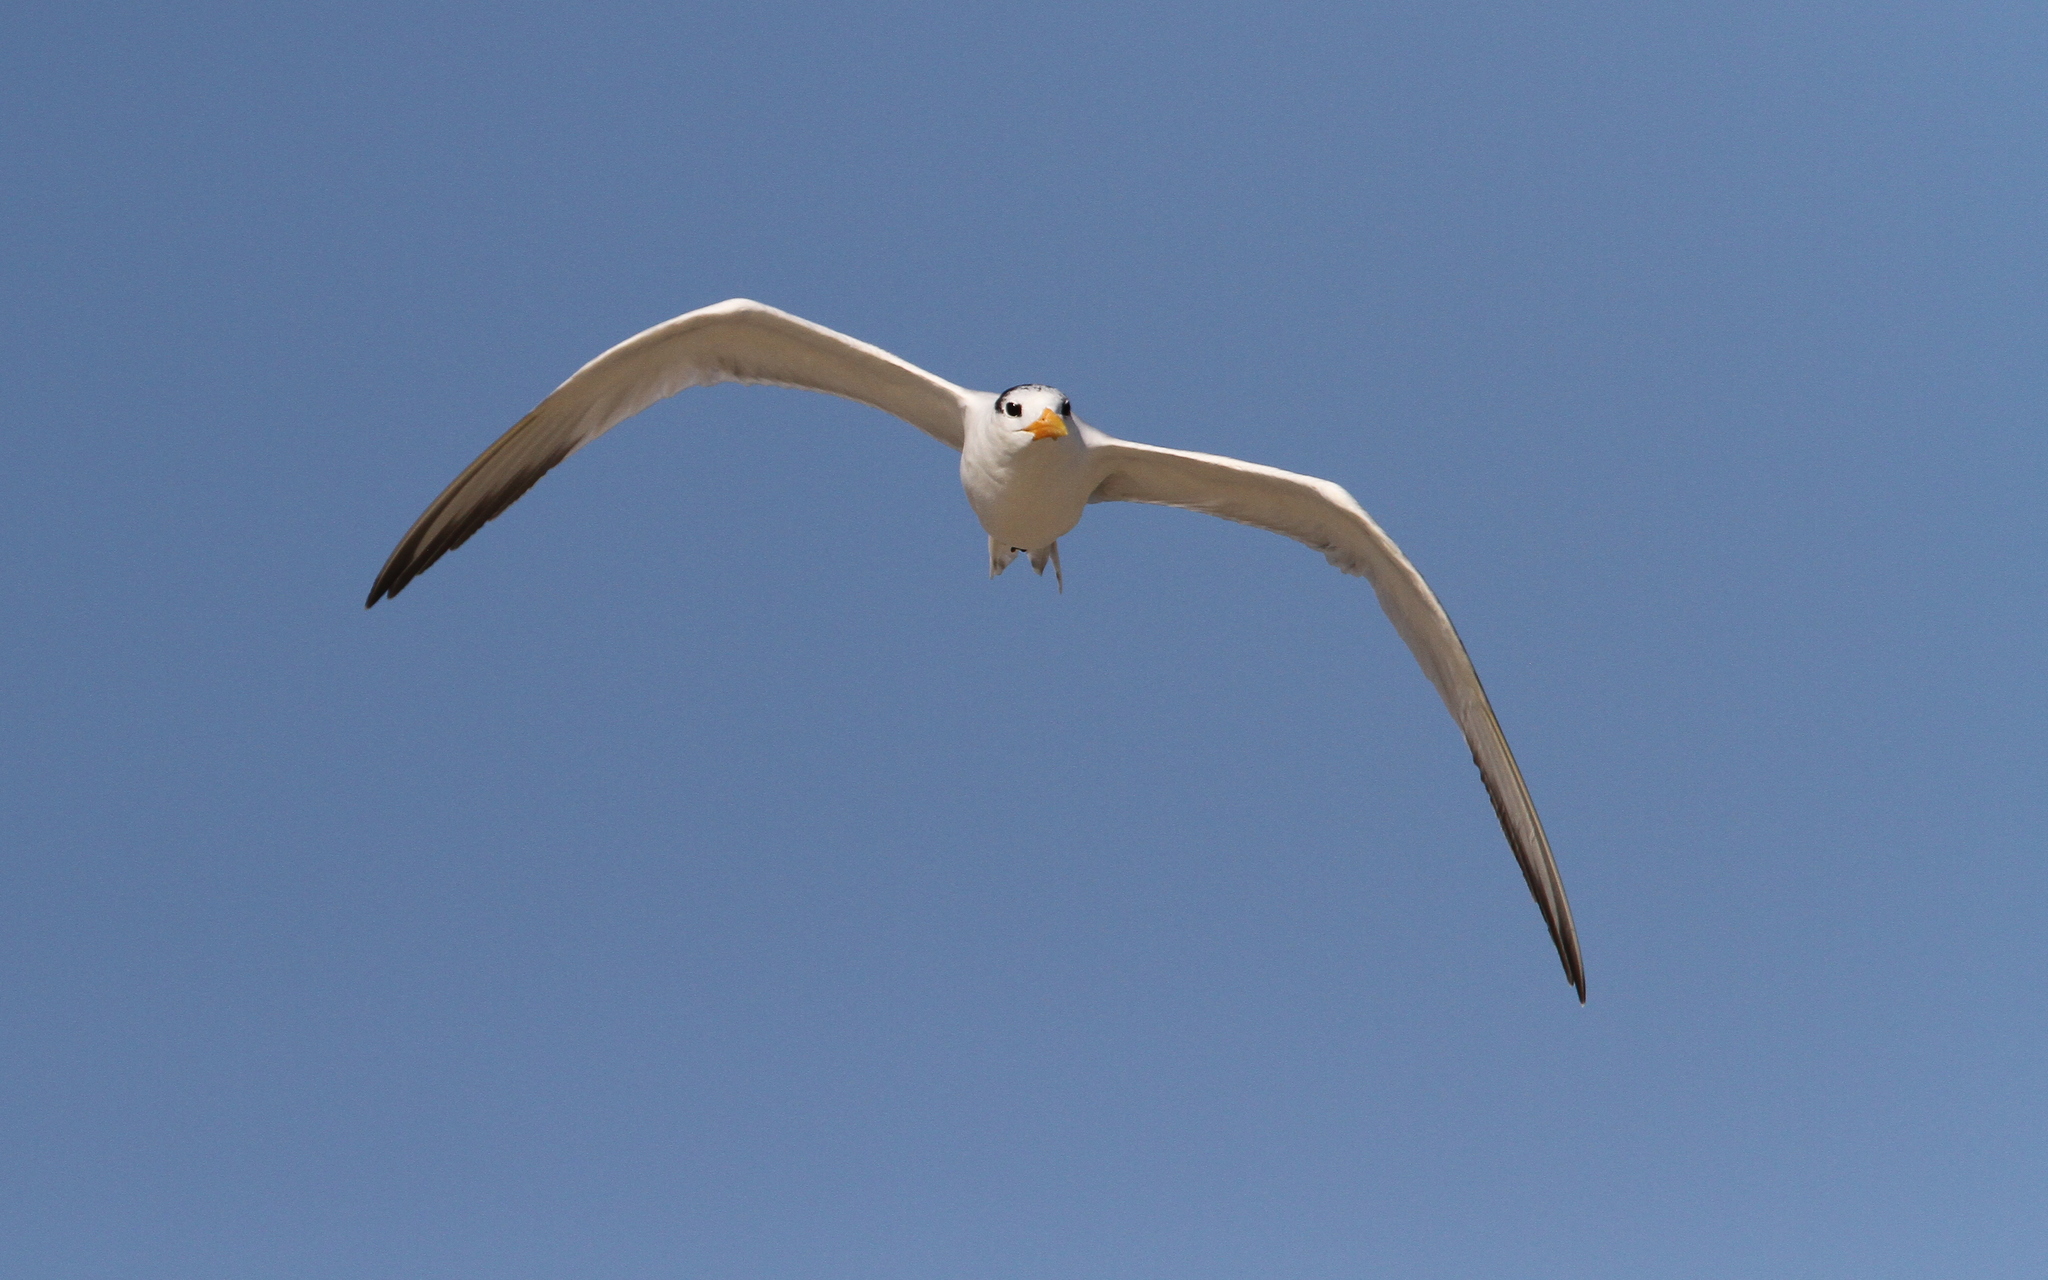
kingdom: Animalia
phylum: Chordata
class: Aves
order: Charadriiformes
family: Laridae
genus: Thalasseus
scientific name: Thalasseus albididorsalis
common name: West african crested tern
